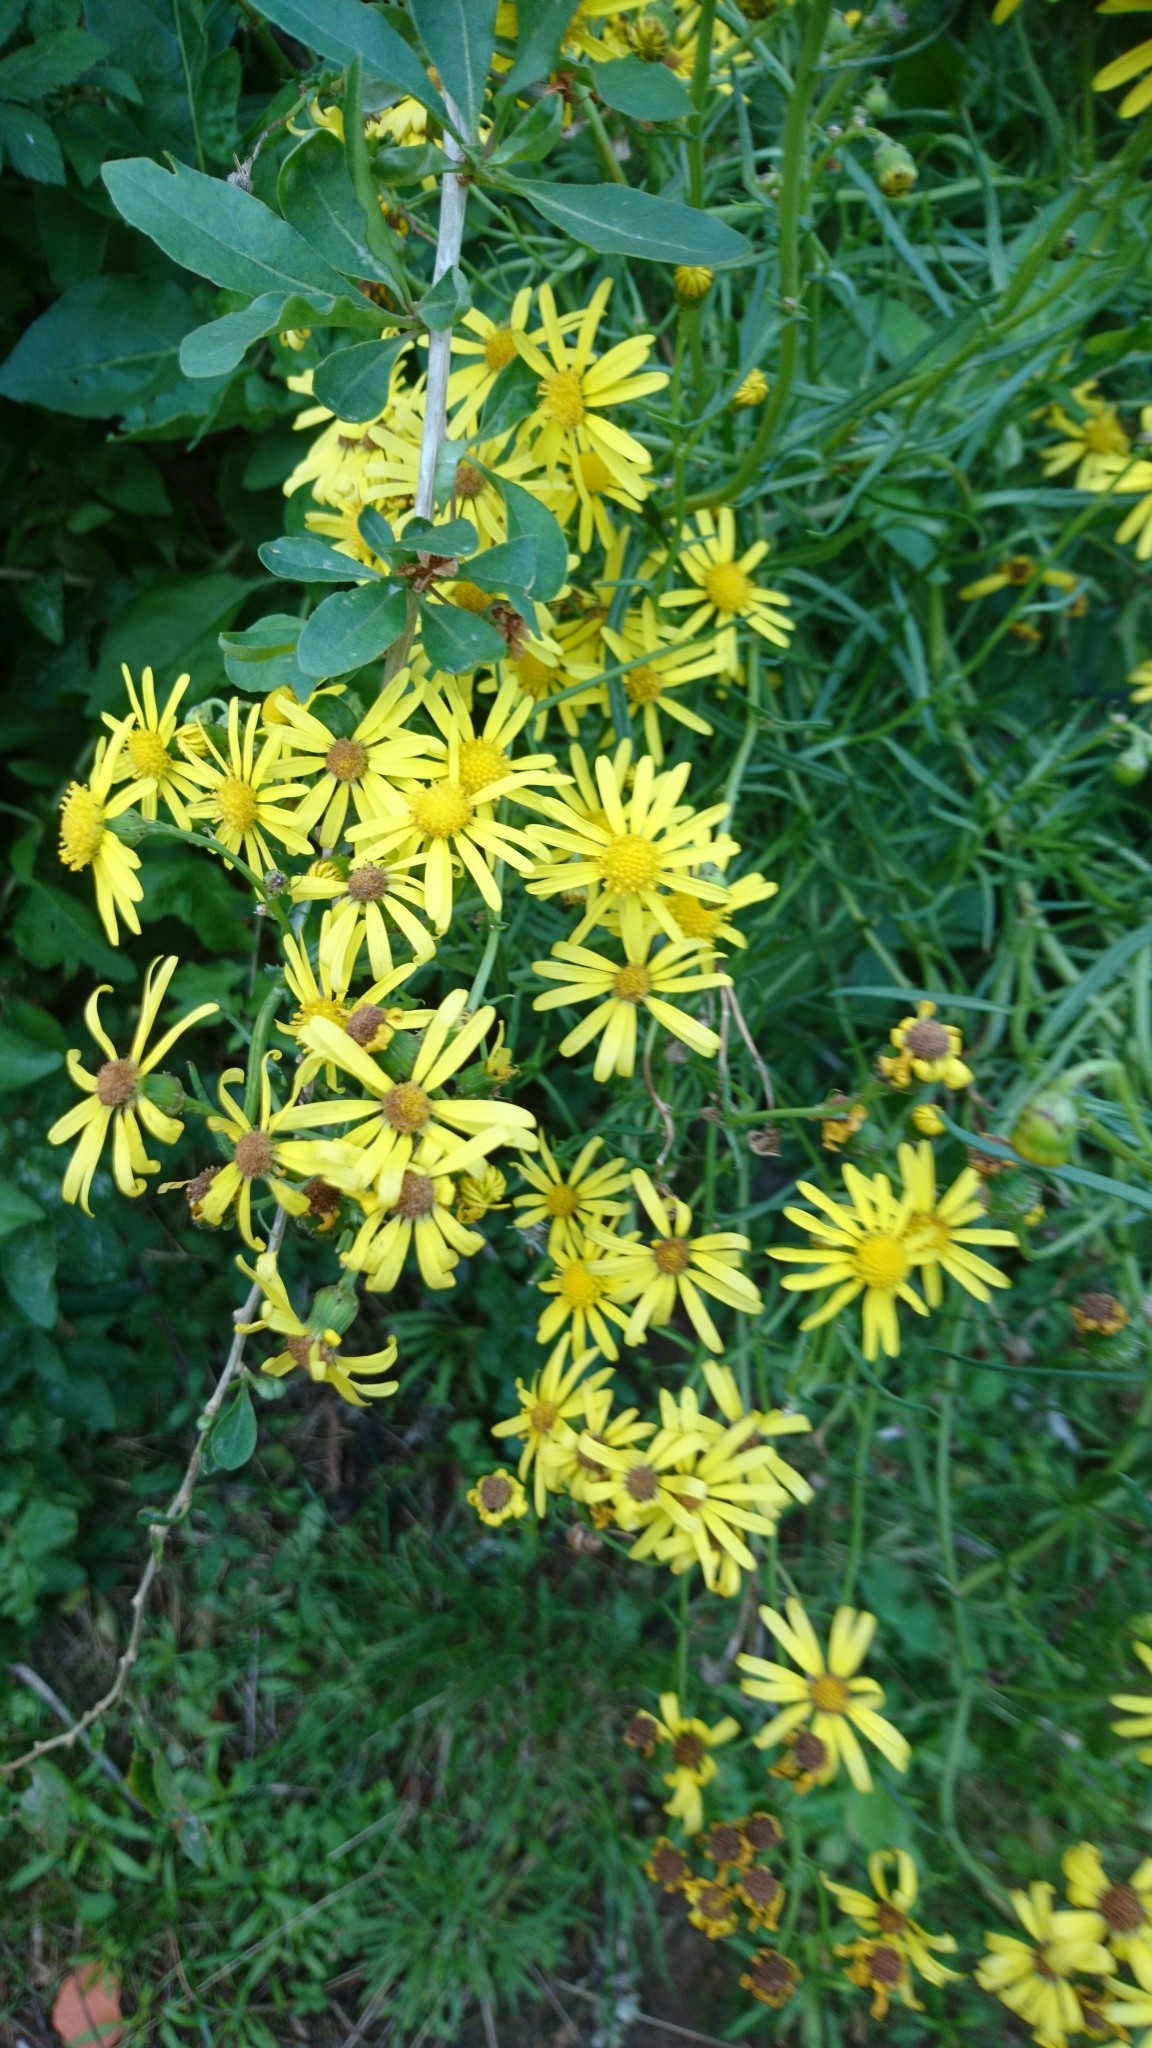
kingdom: Plantae
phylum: Tracheophyta
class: Magnoliopsida
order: Asterales
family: Asteraceae
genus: Senecio
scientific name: Senecio inaequidens
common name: Narrow-leaved ragwort
